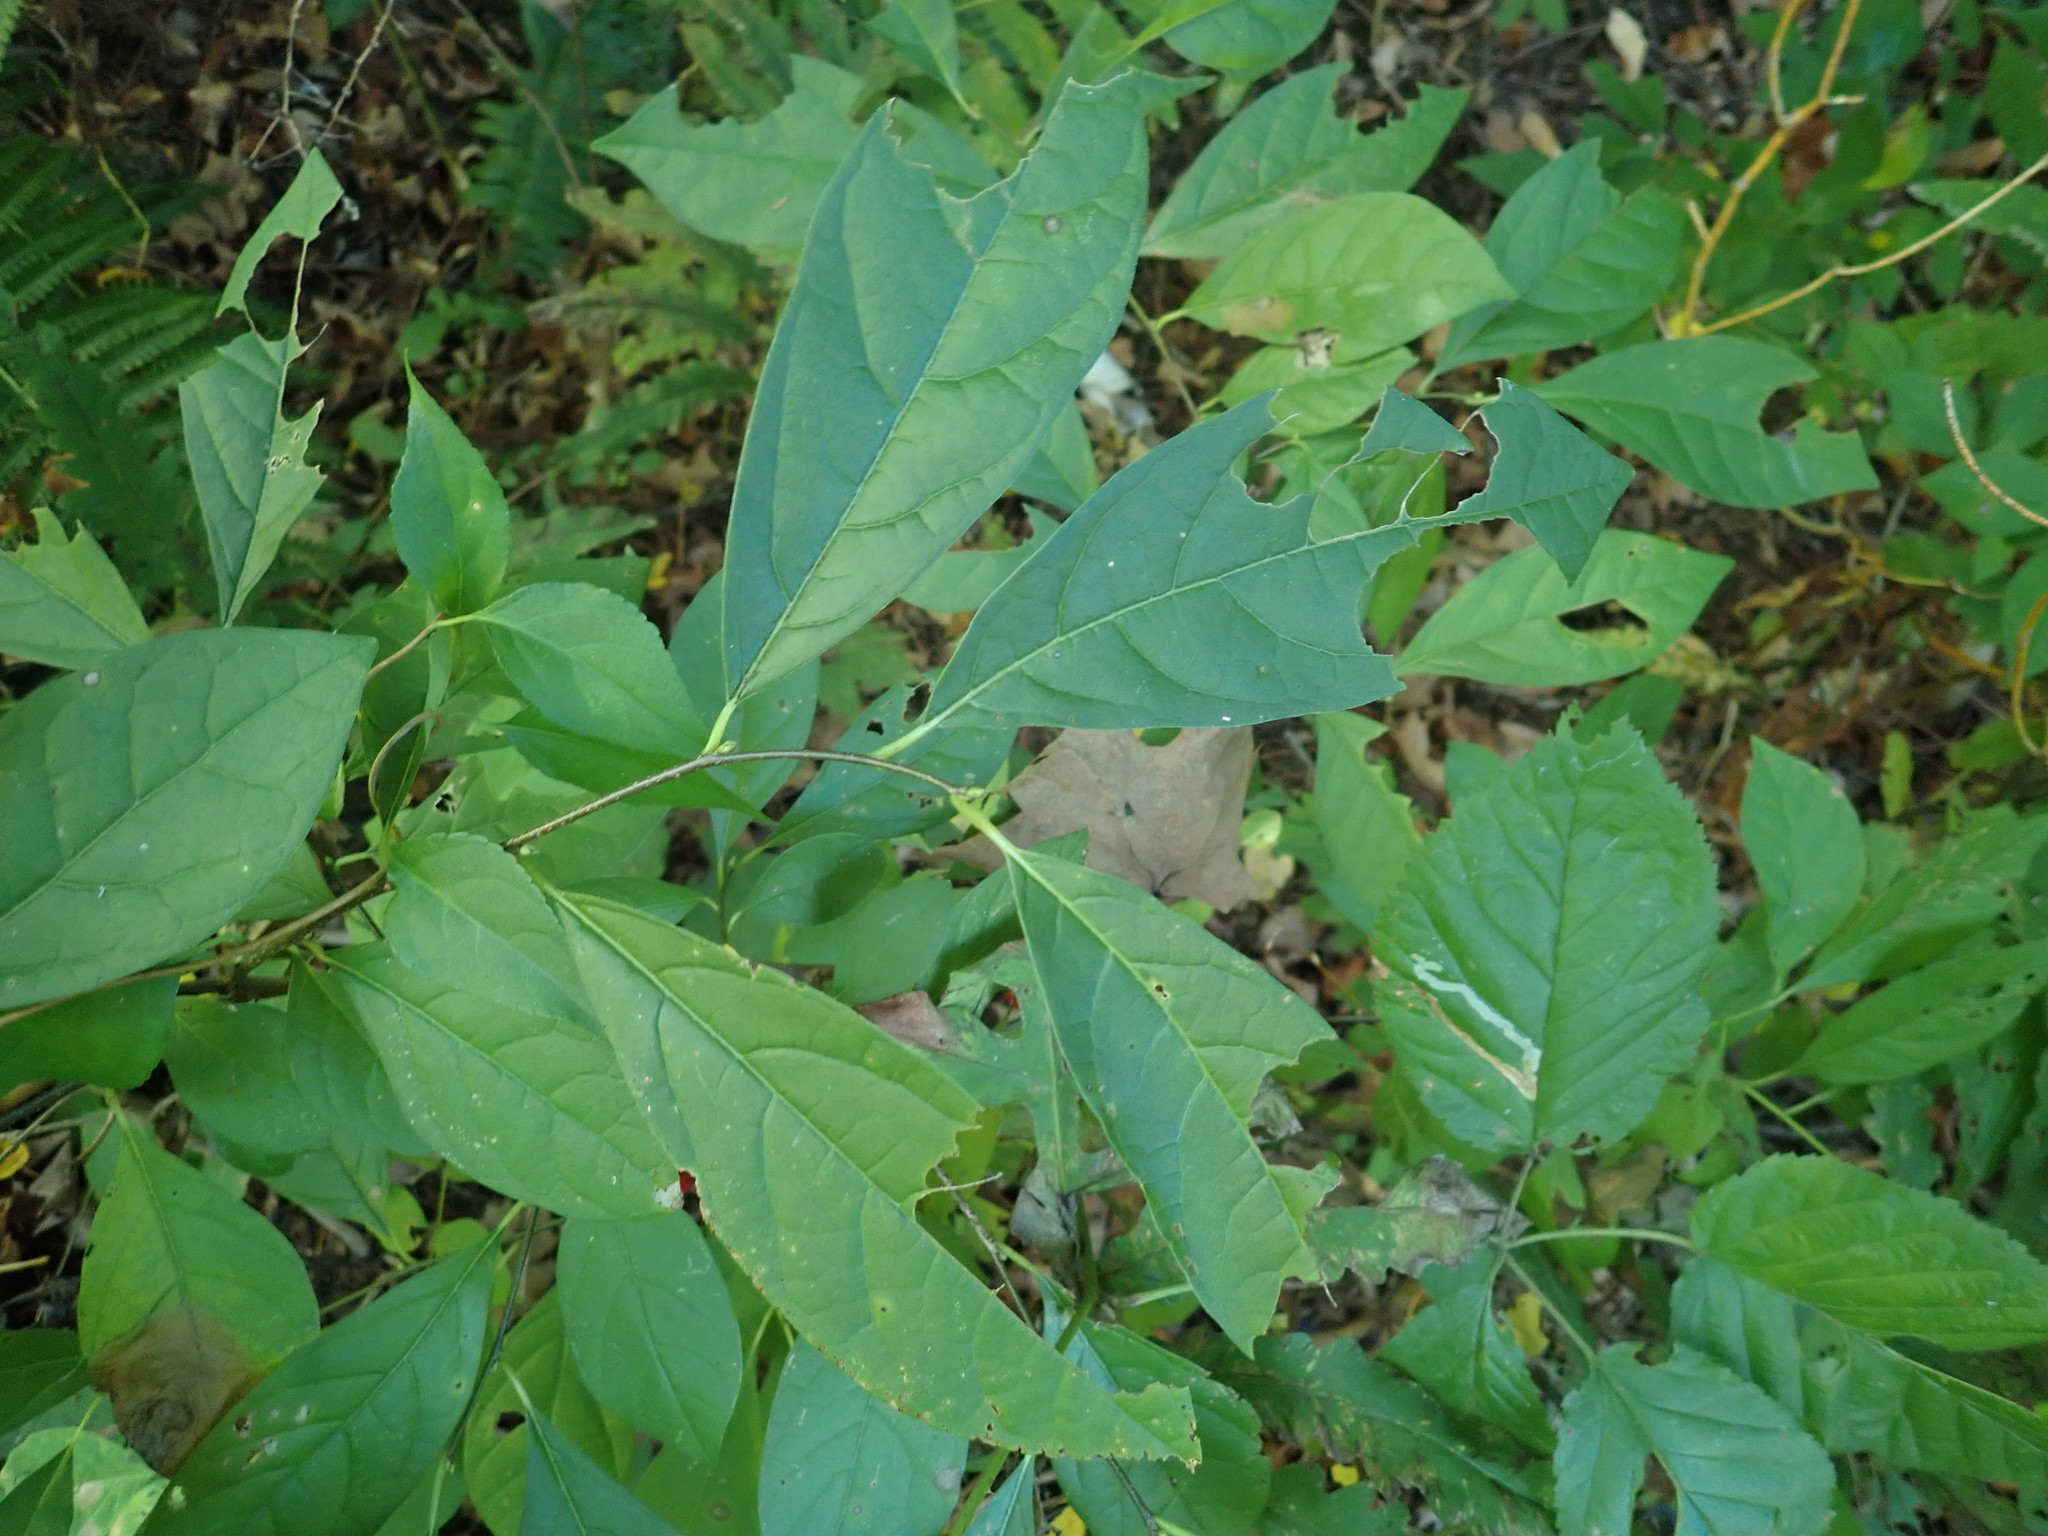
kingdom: Plantae
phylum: Tracheophyta
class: Magnoliopsida
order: Laurales
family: Lauraceae
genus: Lindera
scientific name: Lindera benzoin
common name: Spicebush
